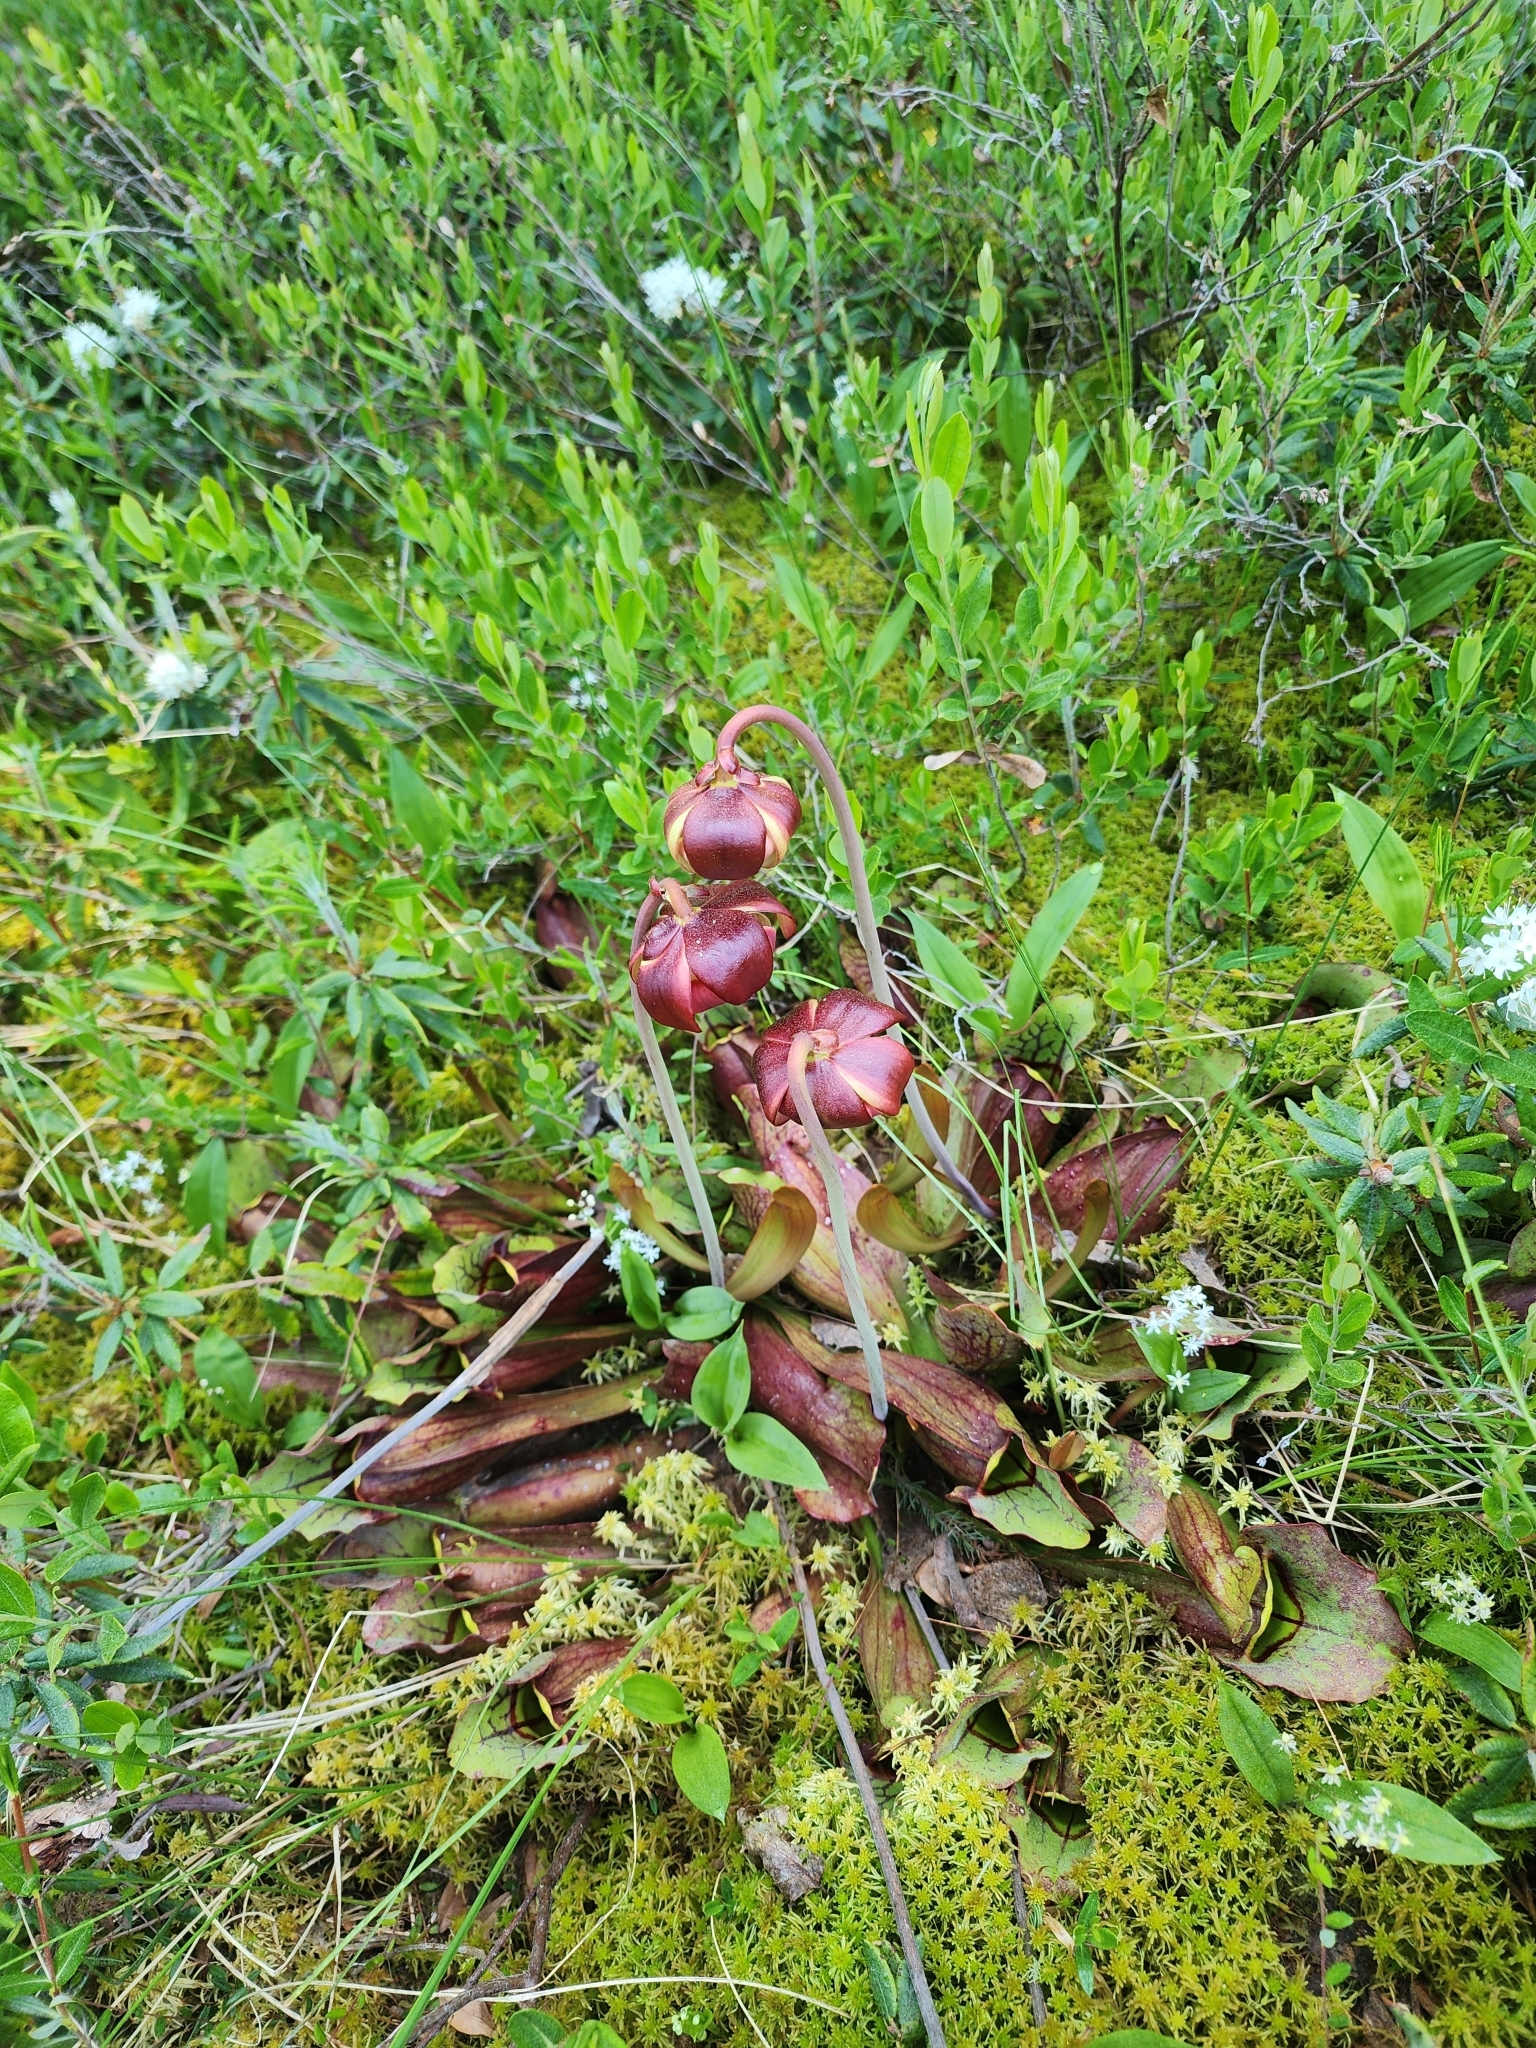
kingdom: Plantae
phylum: Tracheophyta
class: Magnoliopsida
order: Ericales
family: Sarraceniaceae
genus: Sarracenia
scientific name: Sarracenia purpurea
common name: Pitcherplant
